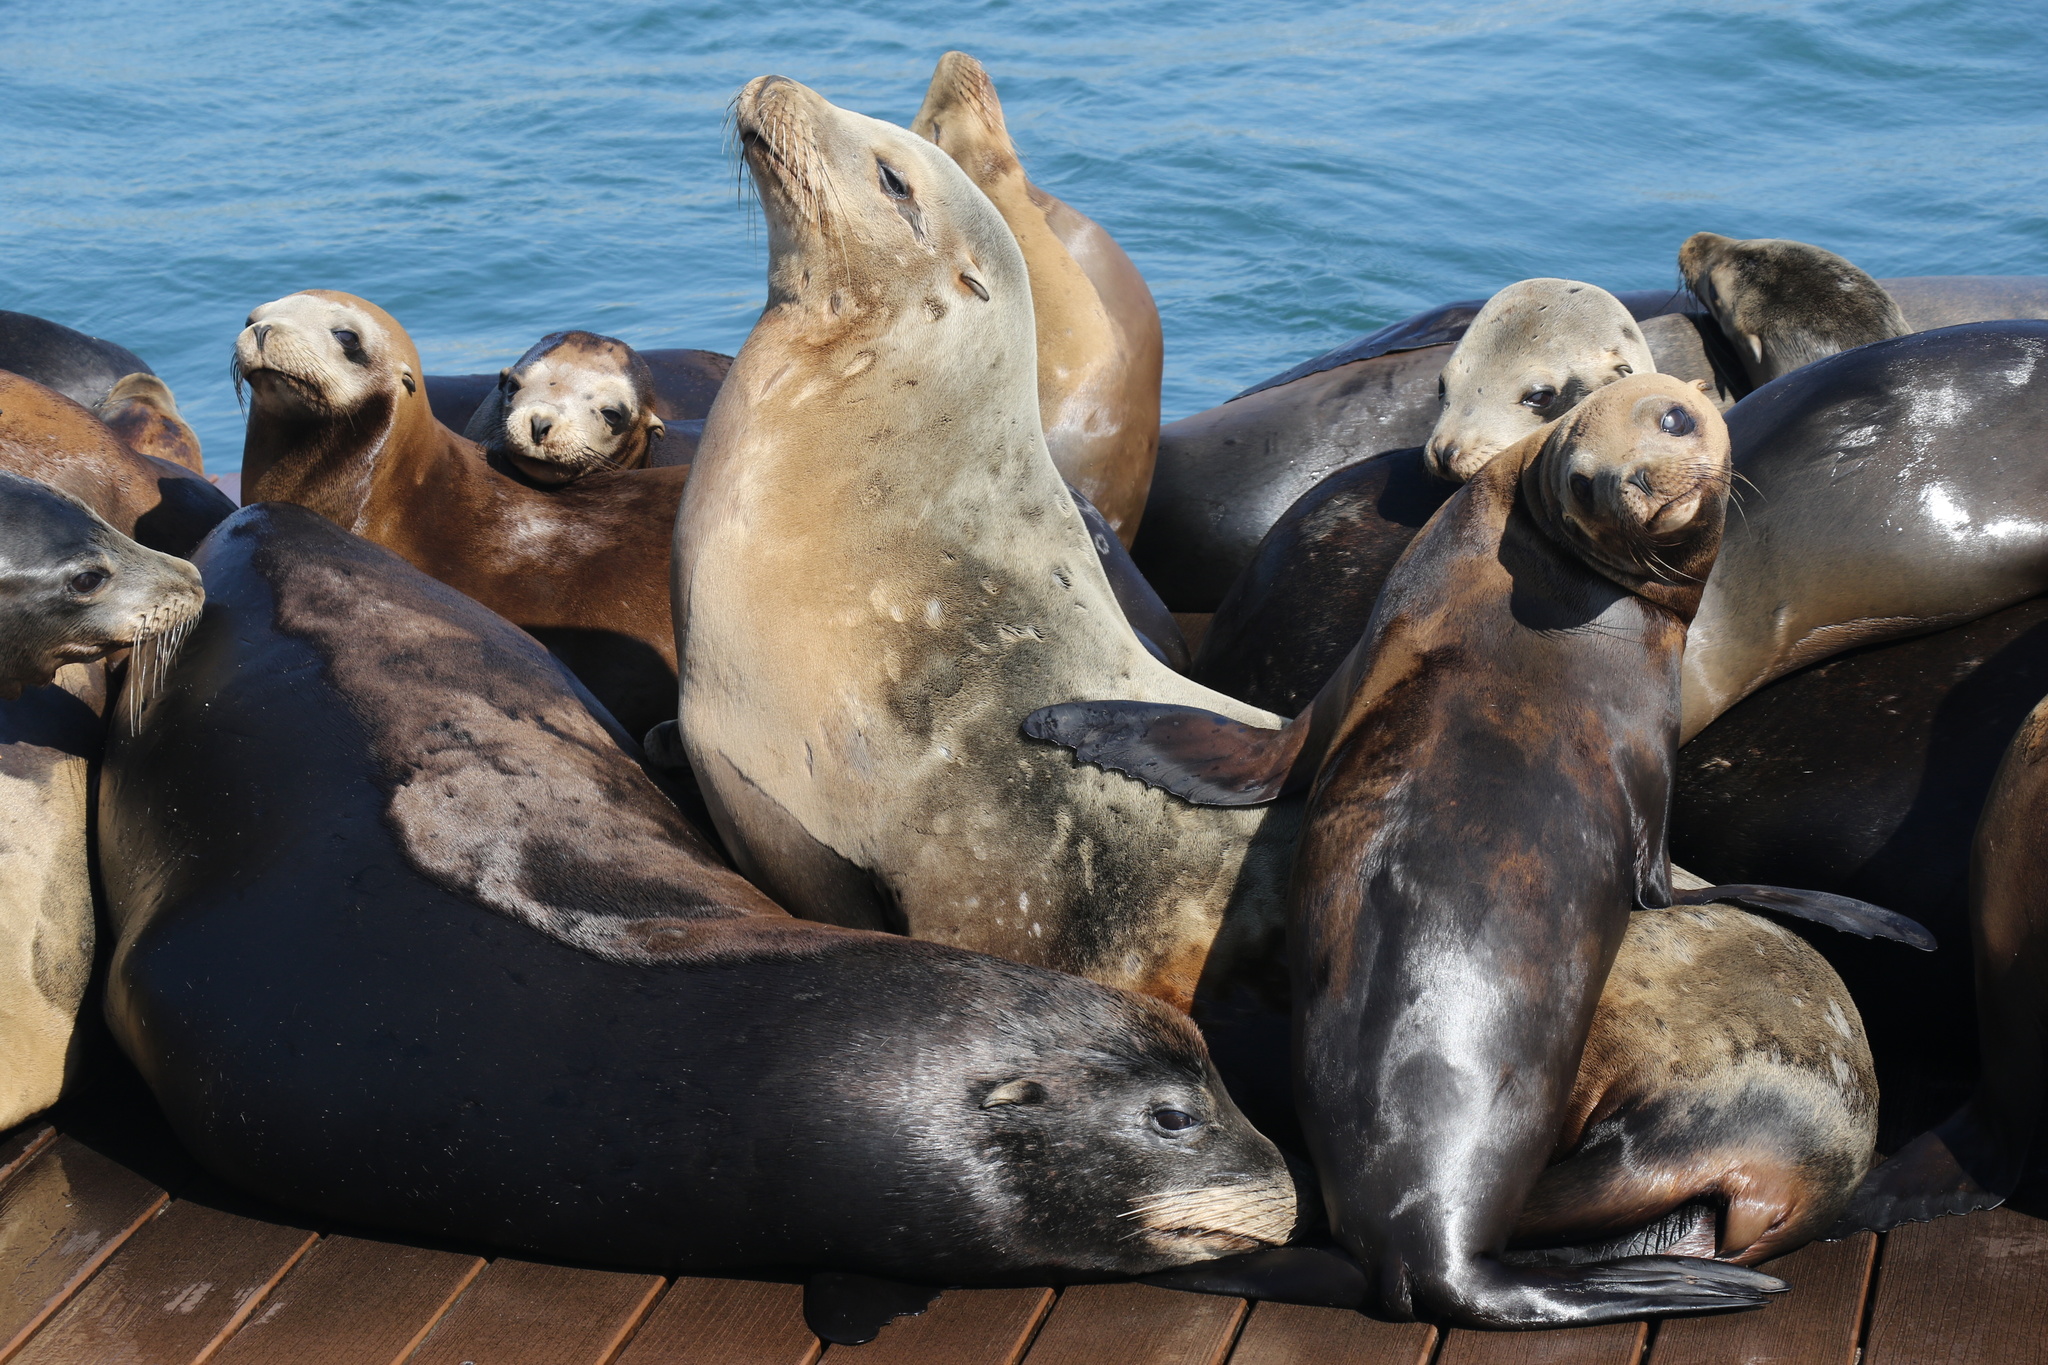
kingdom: Animalia
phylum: Chordata
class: Mammalia
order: Carnivora
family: Otariidae
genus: Zalophus
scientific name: Zalophus californianus
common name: California sea lion
